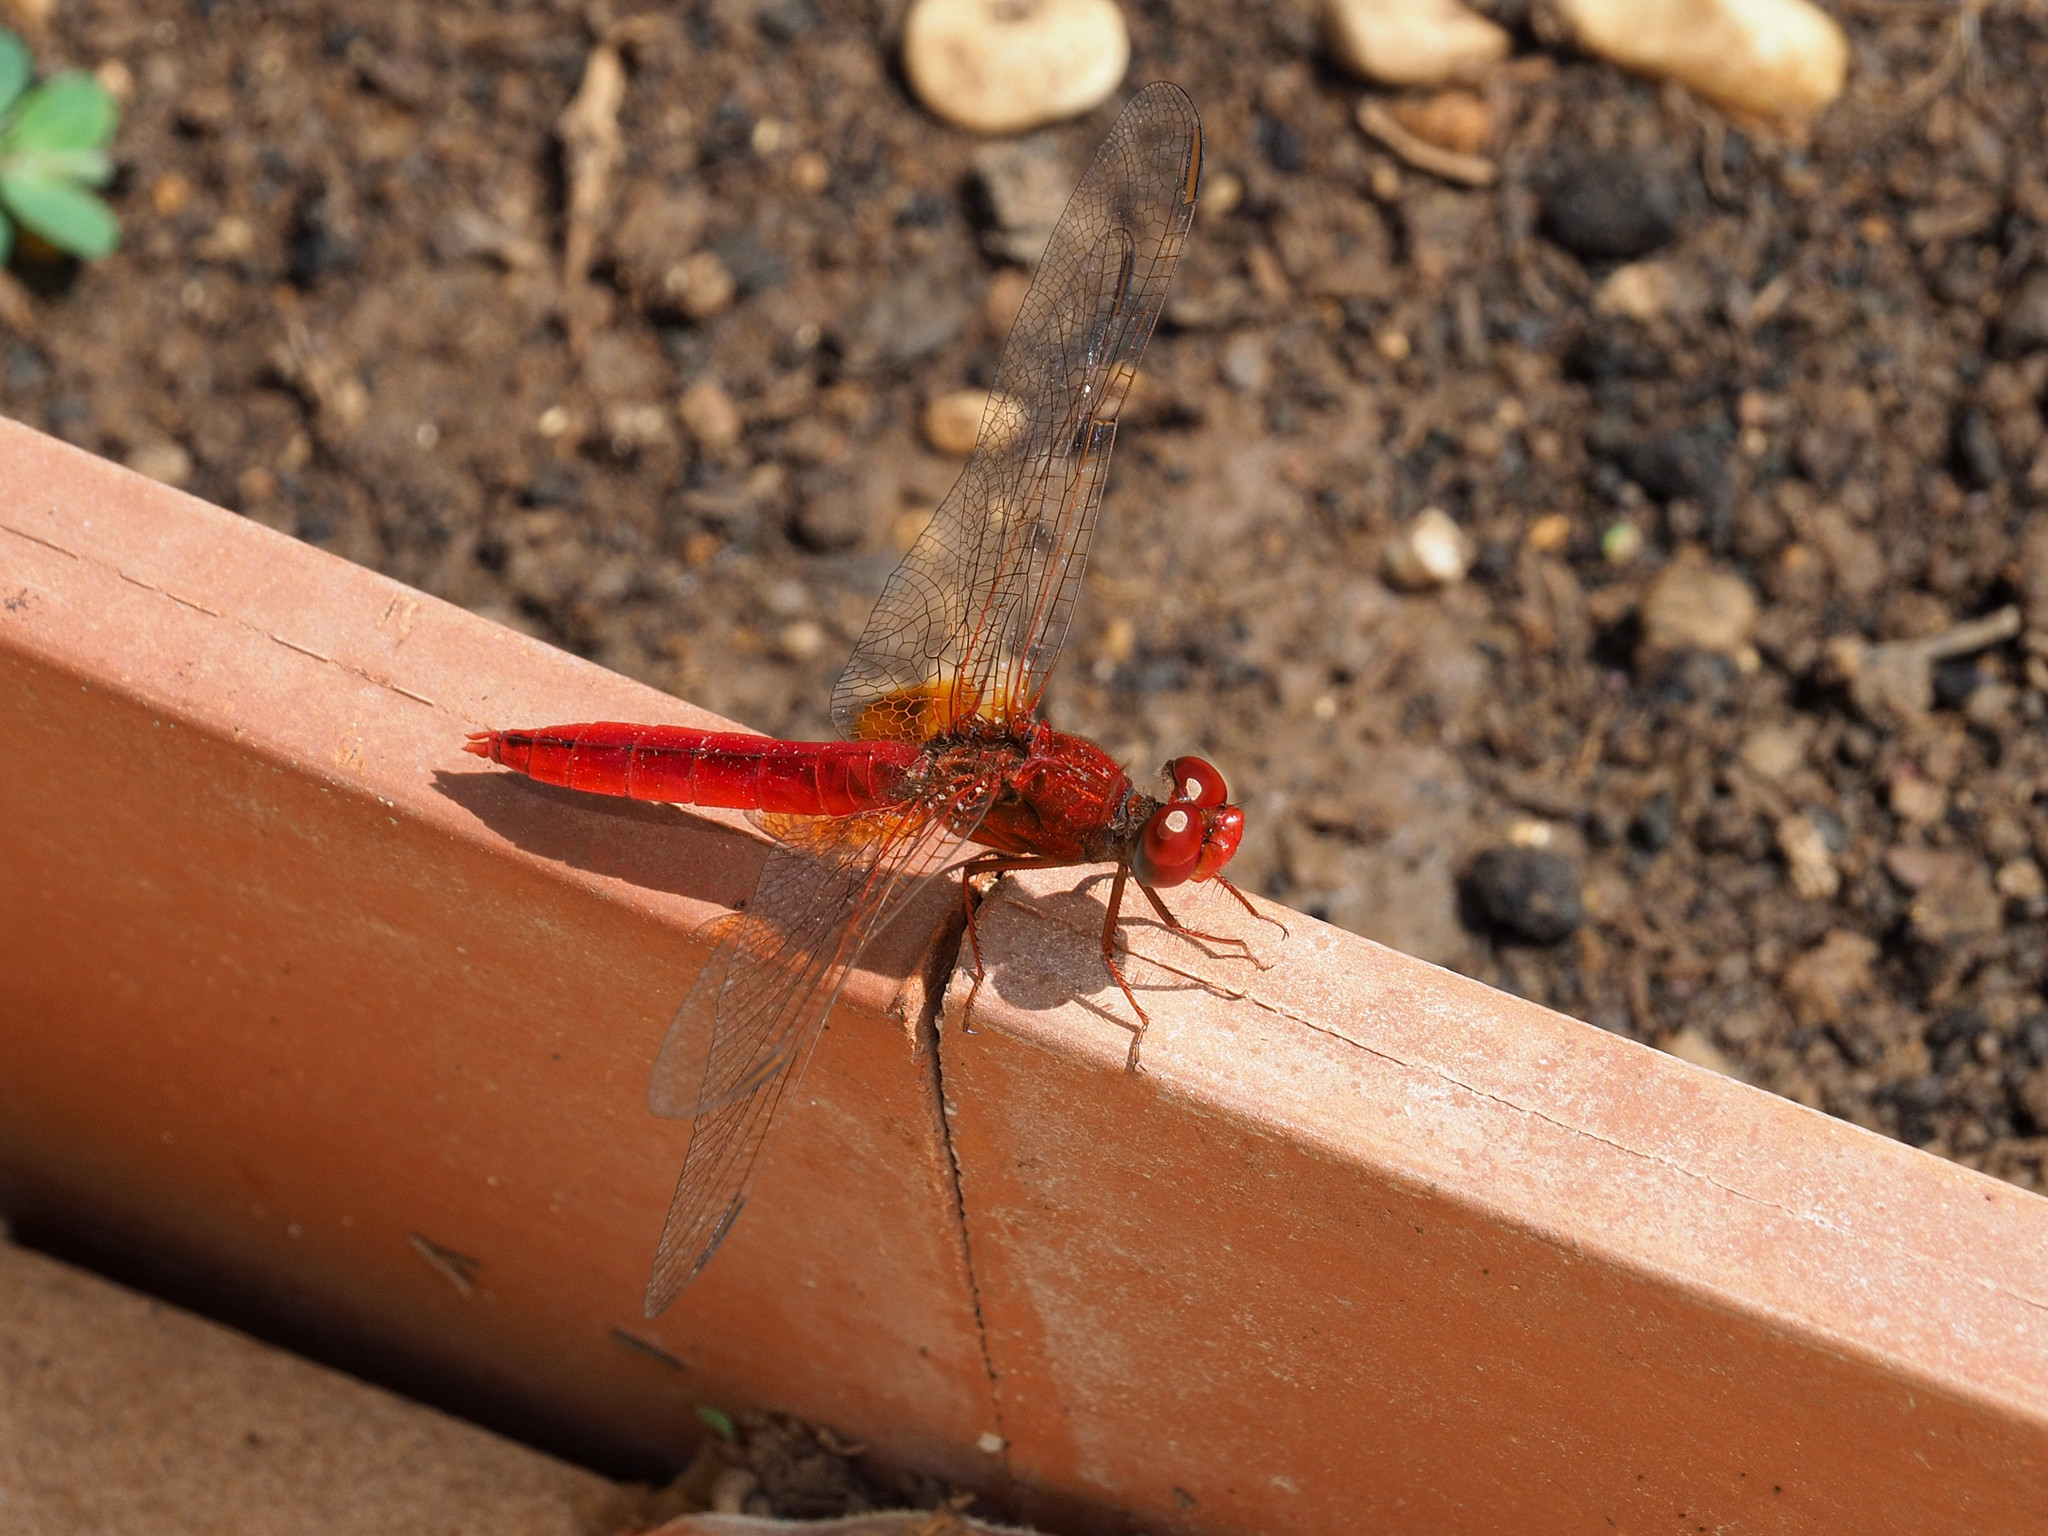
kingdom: Animalia
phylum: Arthropoda
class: Insecta
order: Odonata
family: Libellulidae
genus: Crocothemis
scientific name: Crocothemis erythraea
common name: Scarlet dragonfly
